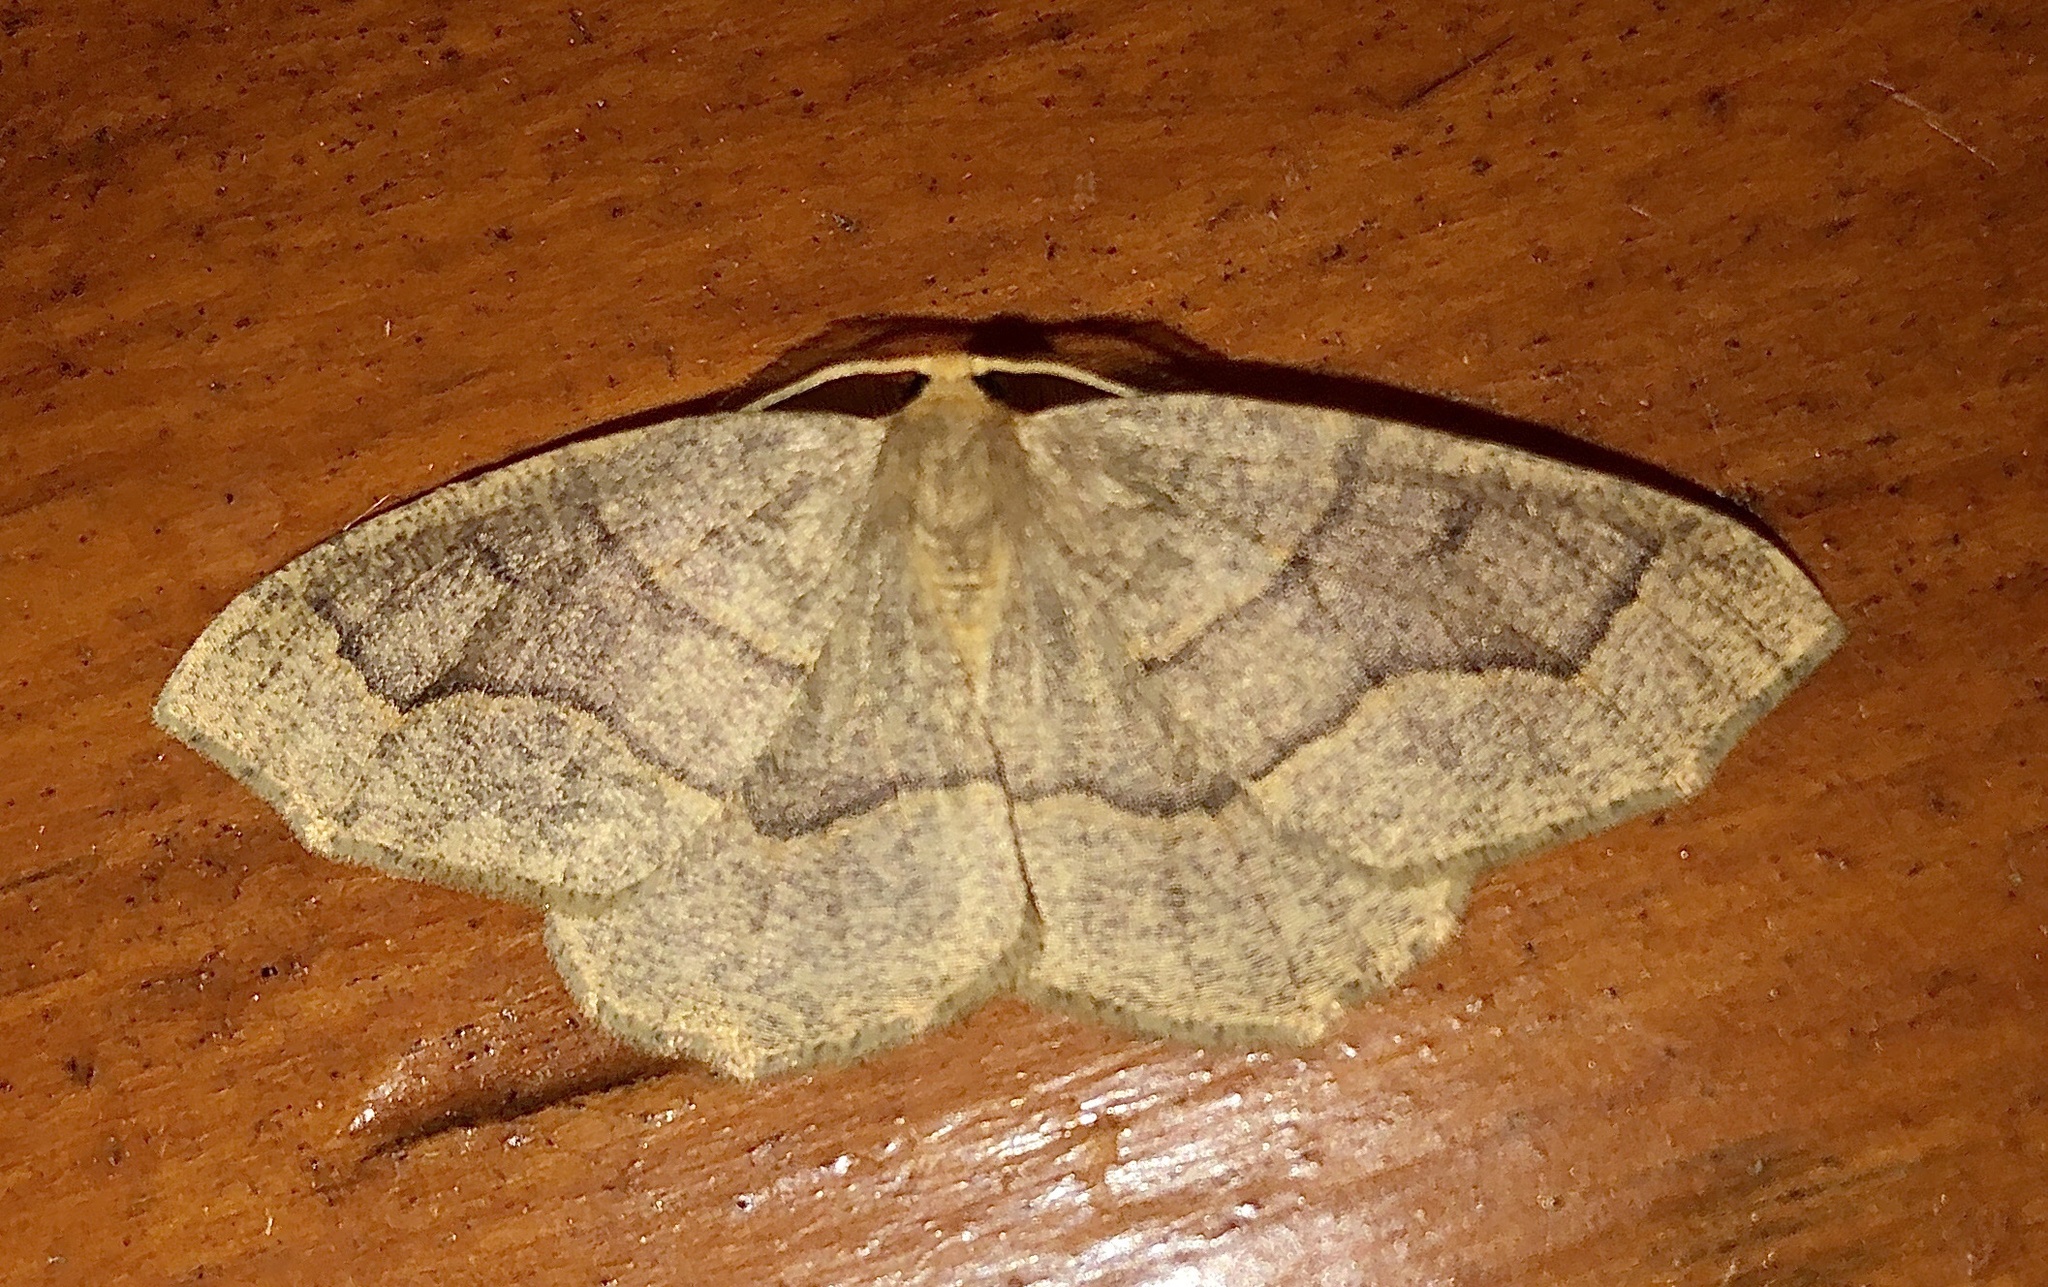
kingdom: Animalia
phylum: Arthropoda
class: Insecta
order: Lepidoptera
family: Geometridae
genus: Lambdina
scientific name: Lambdina fiscellaria
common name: Hemlock looper
